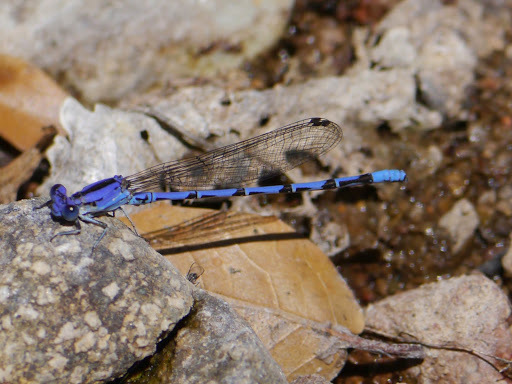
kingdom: Animalia
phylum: Arthropoda
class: Insecta
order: Odonata
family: Coenagrionidae
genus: Argia
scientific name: Argia extranea
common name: Spine-tipped dancer
